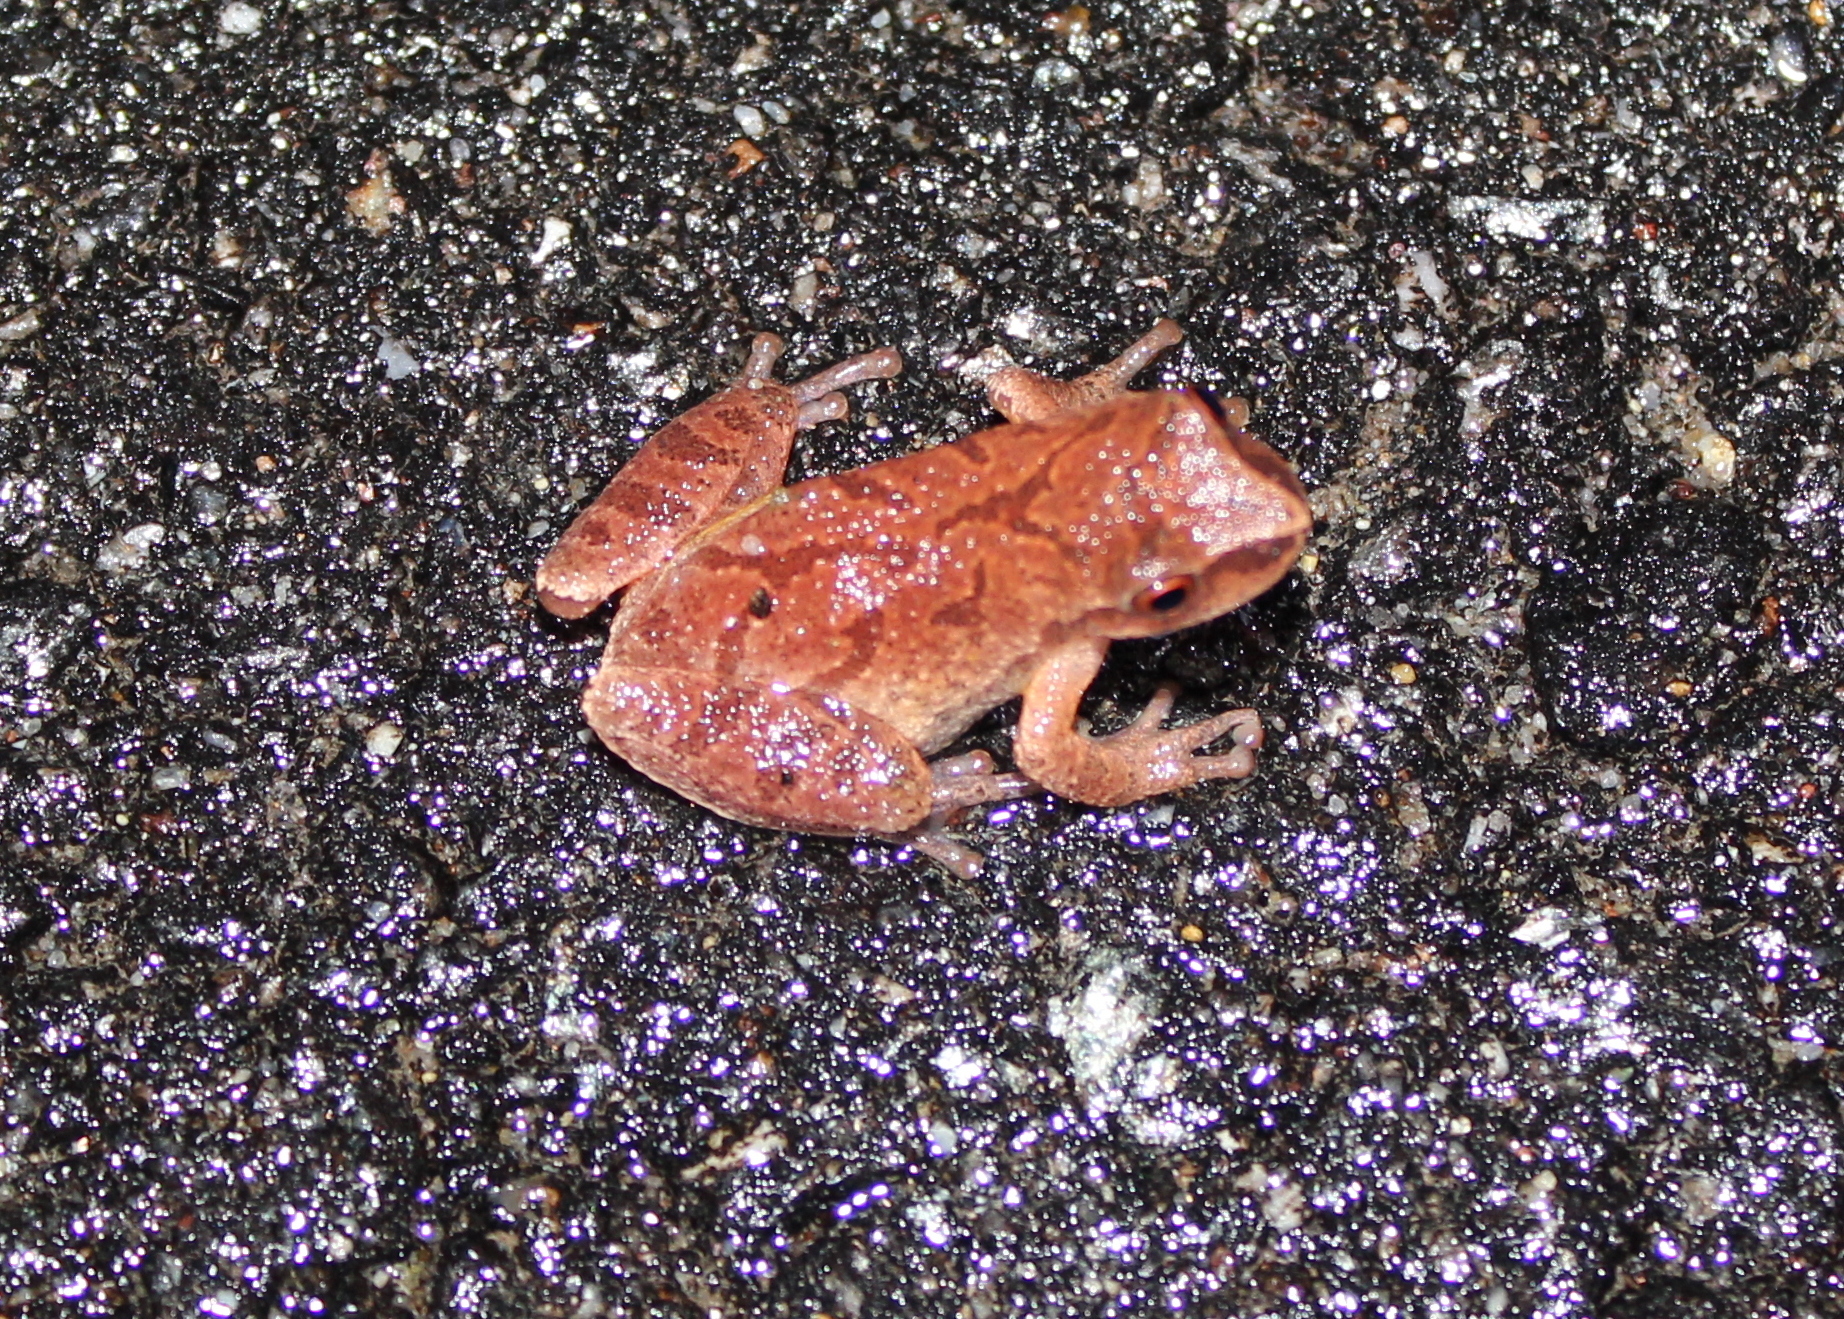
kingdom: Animalia
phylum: Chordata
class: Amphibia
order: Anura
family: Hylidae
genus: Pseudacris
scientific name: Pseudacris crucifer
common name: Spring peeper
